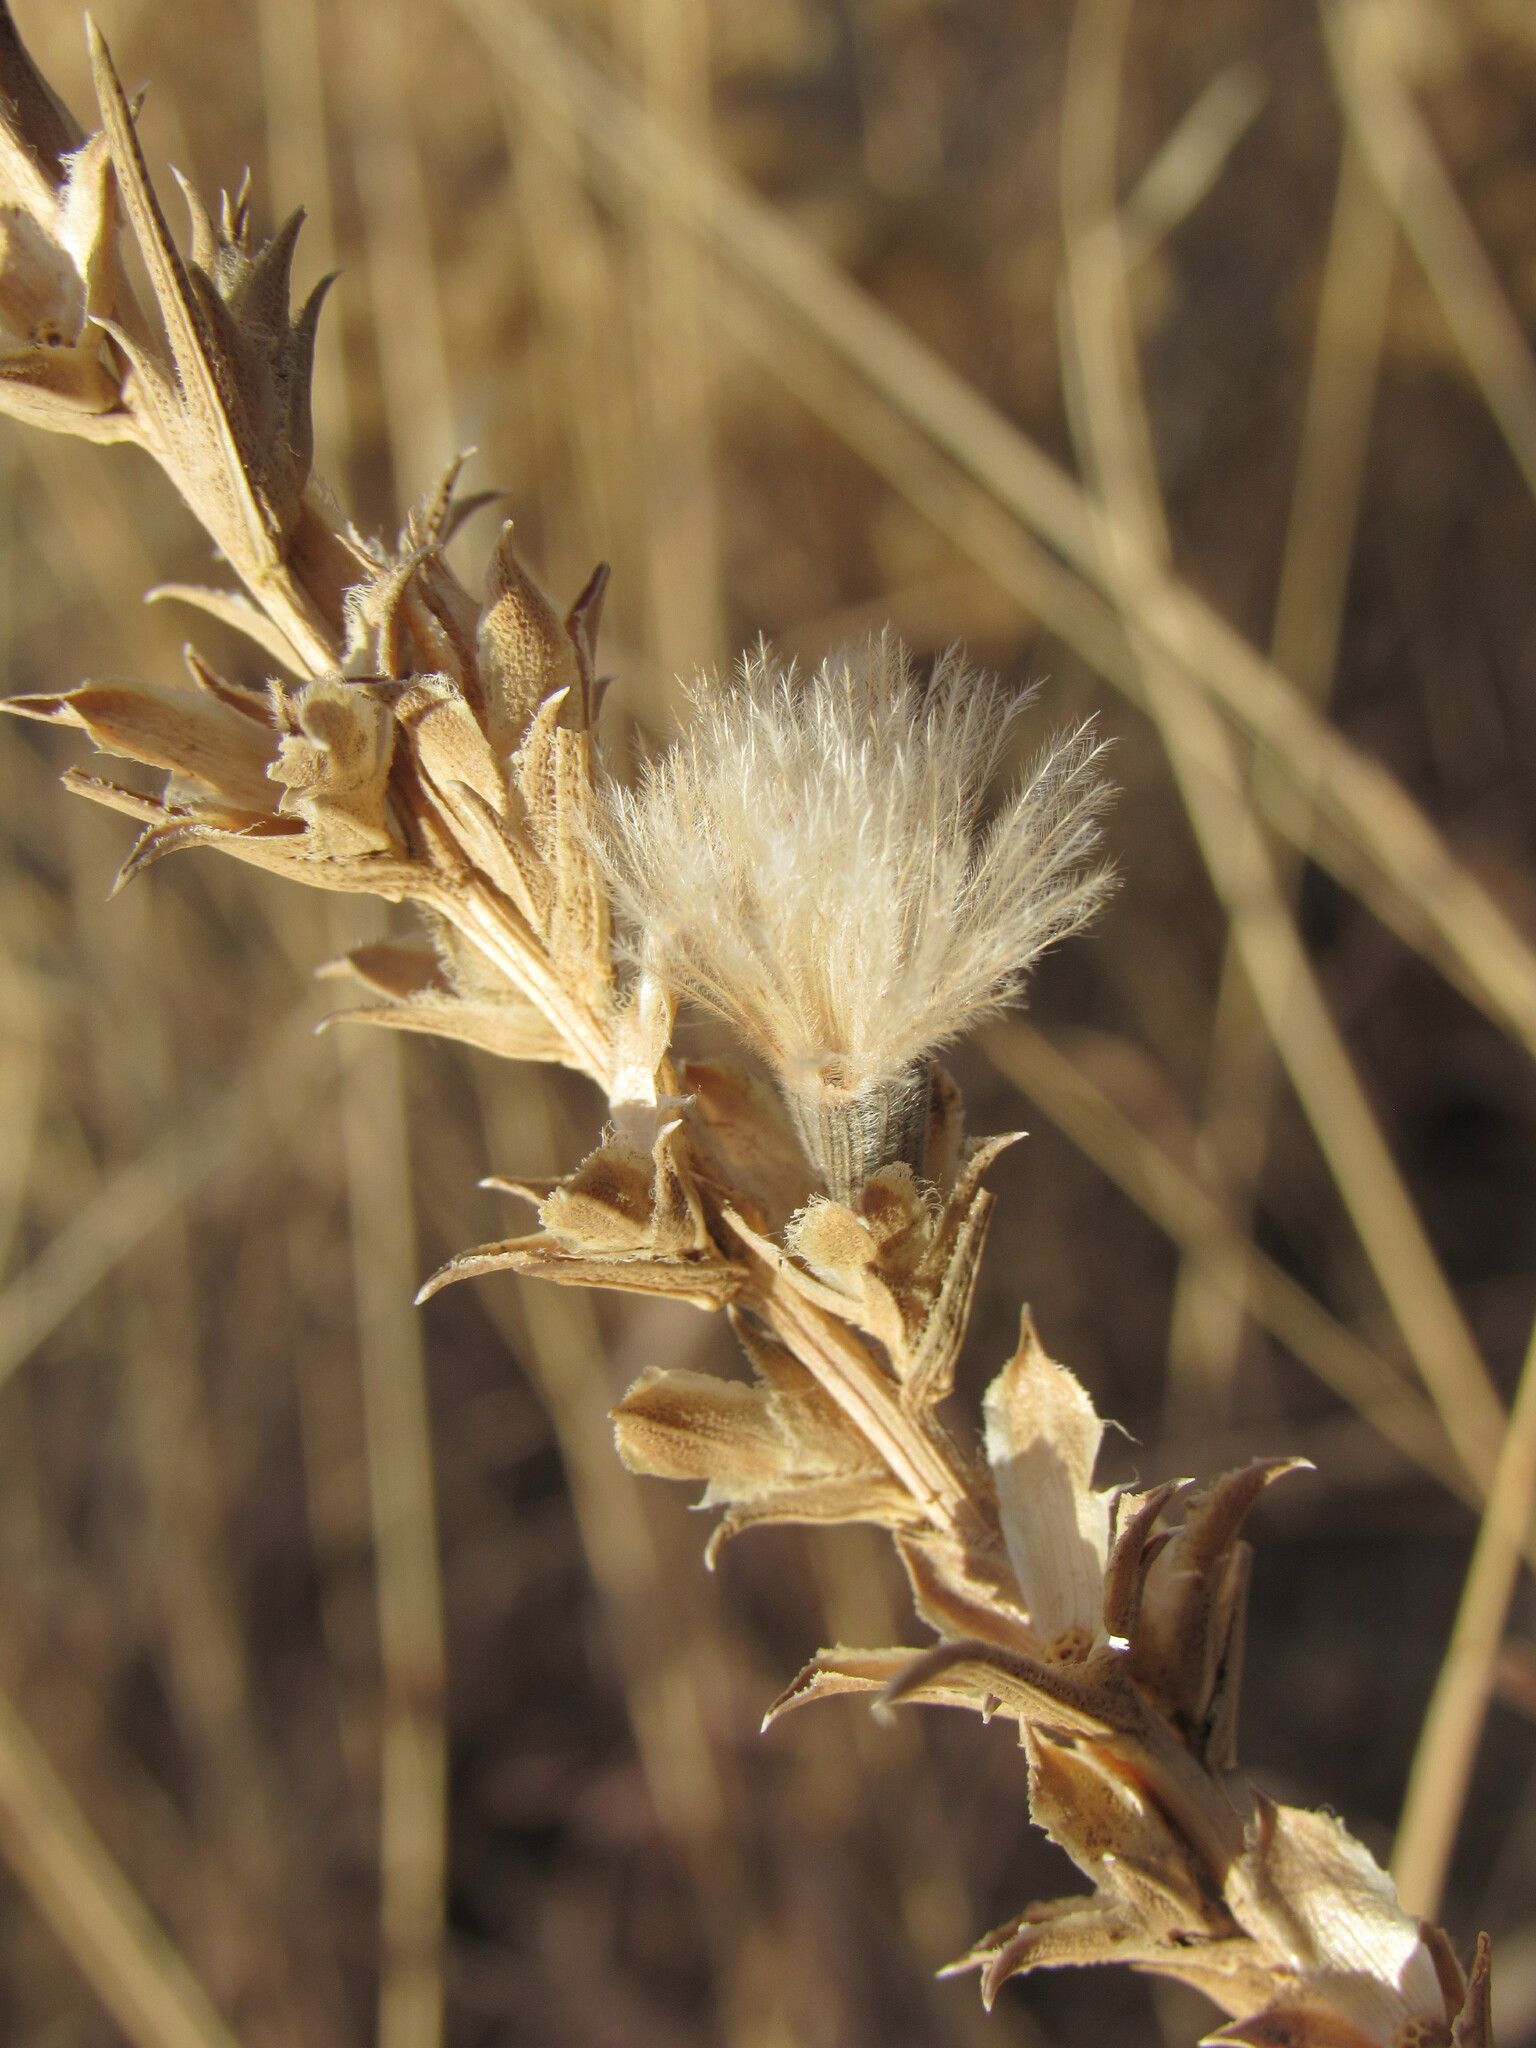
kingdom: Plantae
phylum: Tracheophyta
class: Magnoliopsida
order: Asterales
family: Asteraceae
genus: Liatris
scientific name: Liatris punctata
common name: Dotted gayfeather
